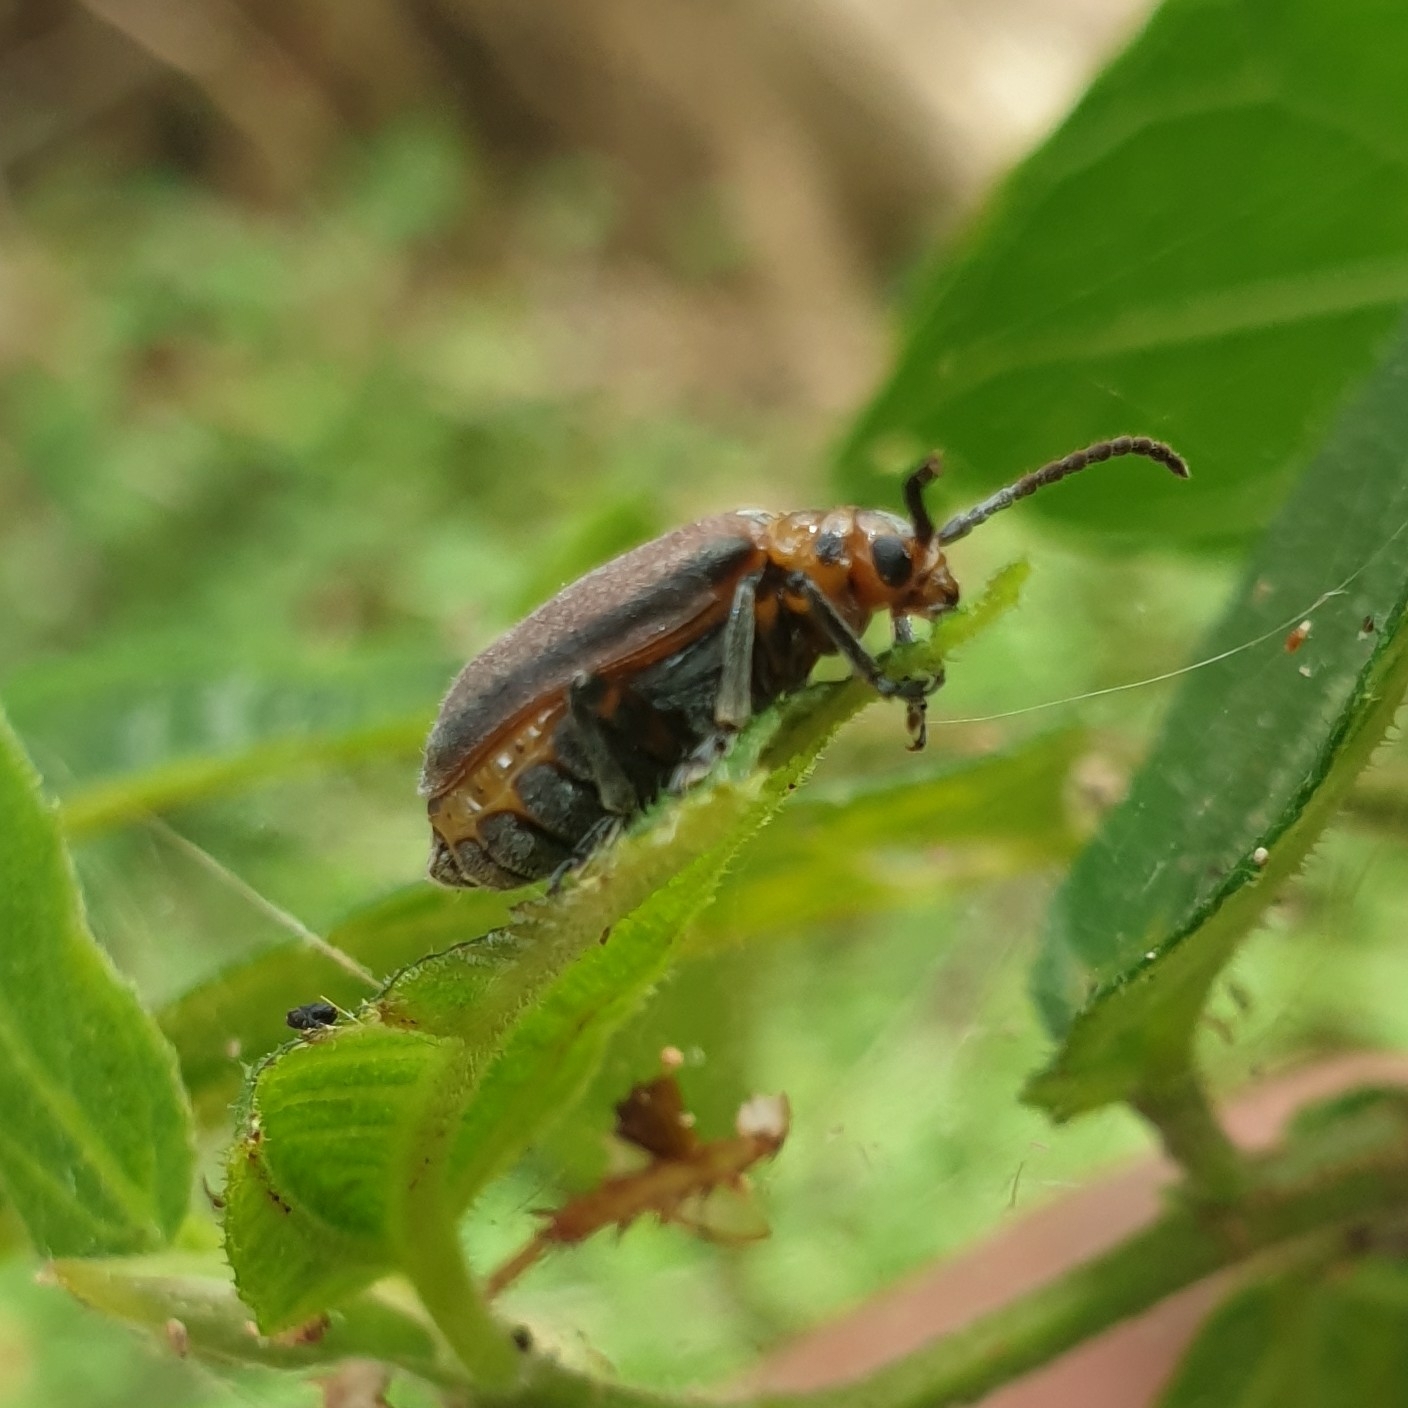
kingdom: Animalia
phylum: Arthropoda
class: Insecta
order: Coleoptera
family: Chrysomelidae
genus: Poneridia
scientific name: Poneridia semipullata
